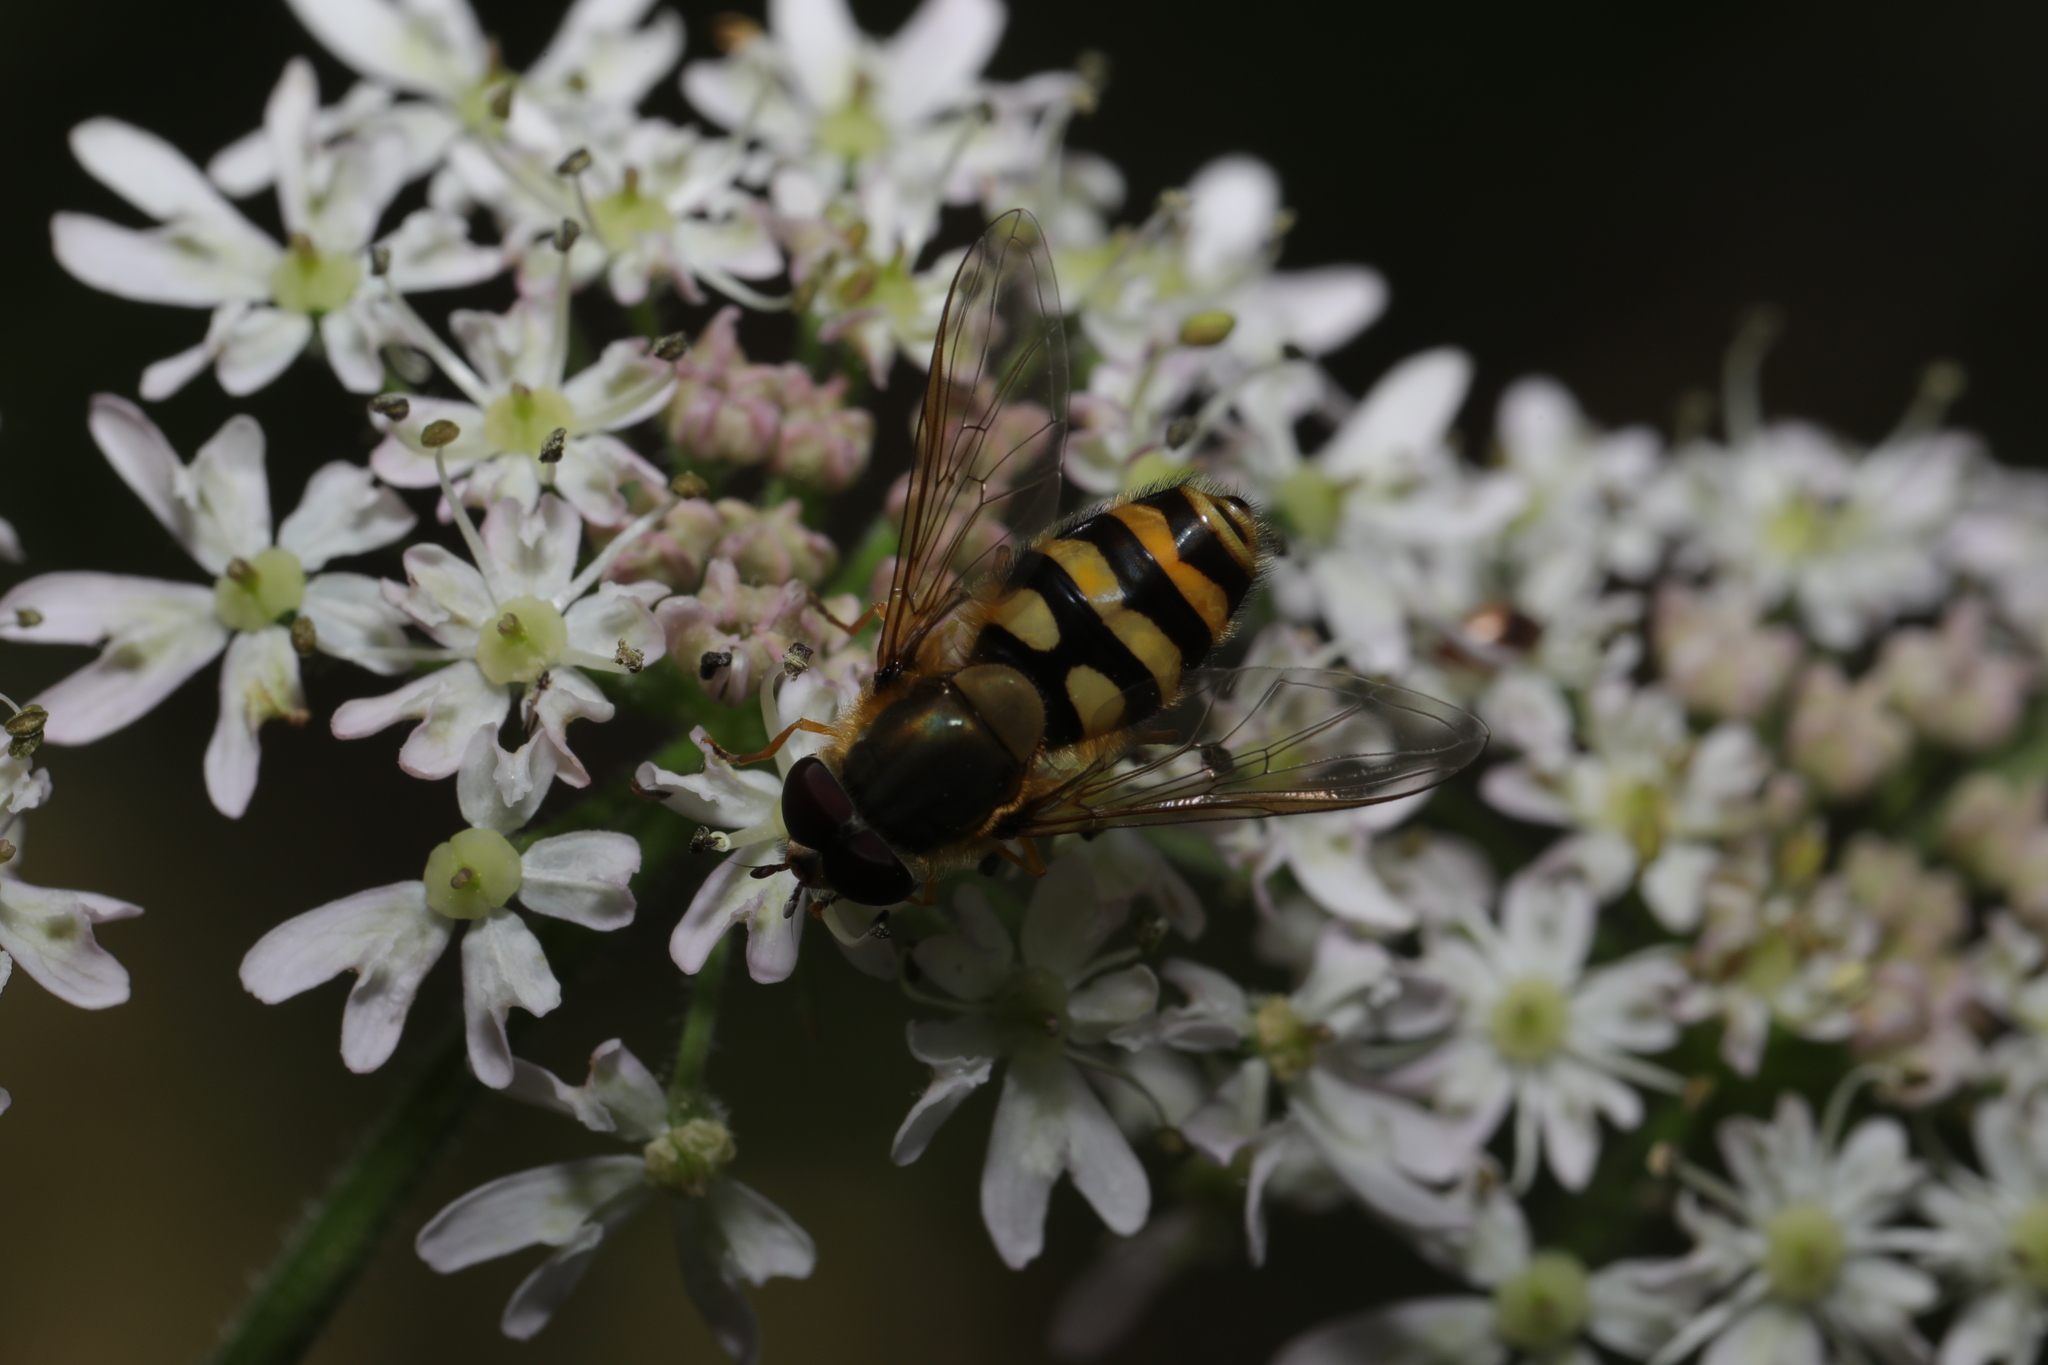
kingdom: Animalia
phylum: Arthropoda
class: Insecta
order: Diptera
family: Syrphidae
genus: Syrphus
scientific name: Syrphus
